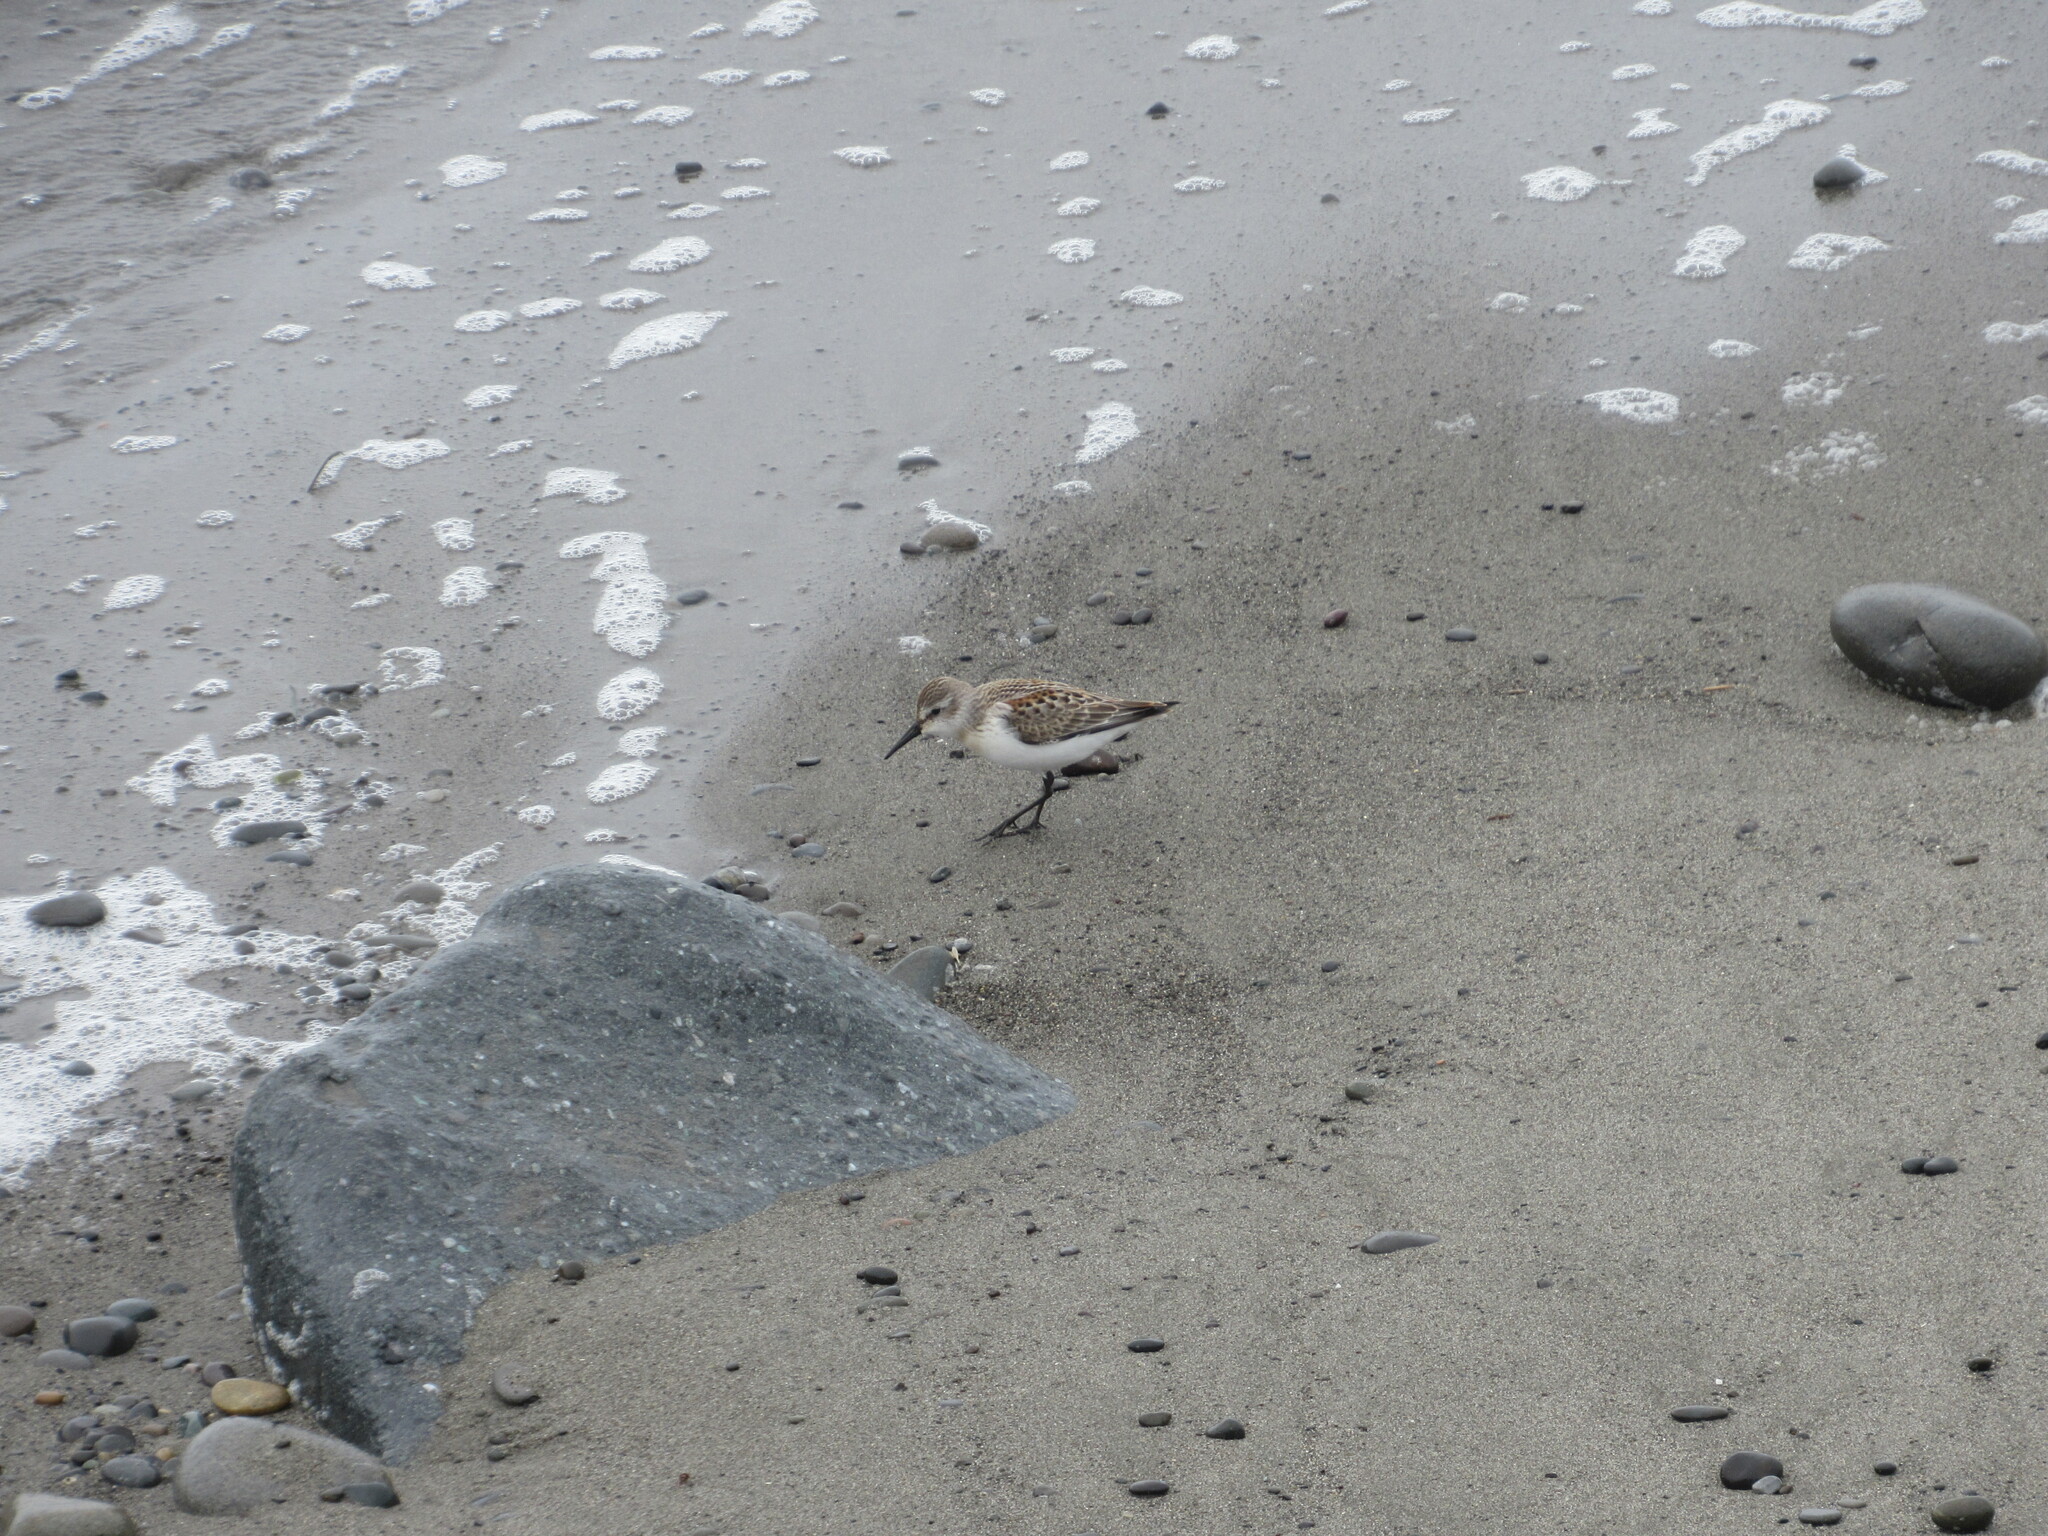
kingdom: Animalia
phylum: Chordata
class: Aves
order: Charadriiformes
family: Scolopacidae
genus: Calidris
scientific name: Calidris mauri
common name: Western sandpiper
